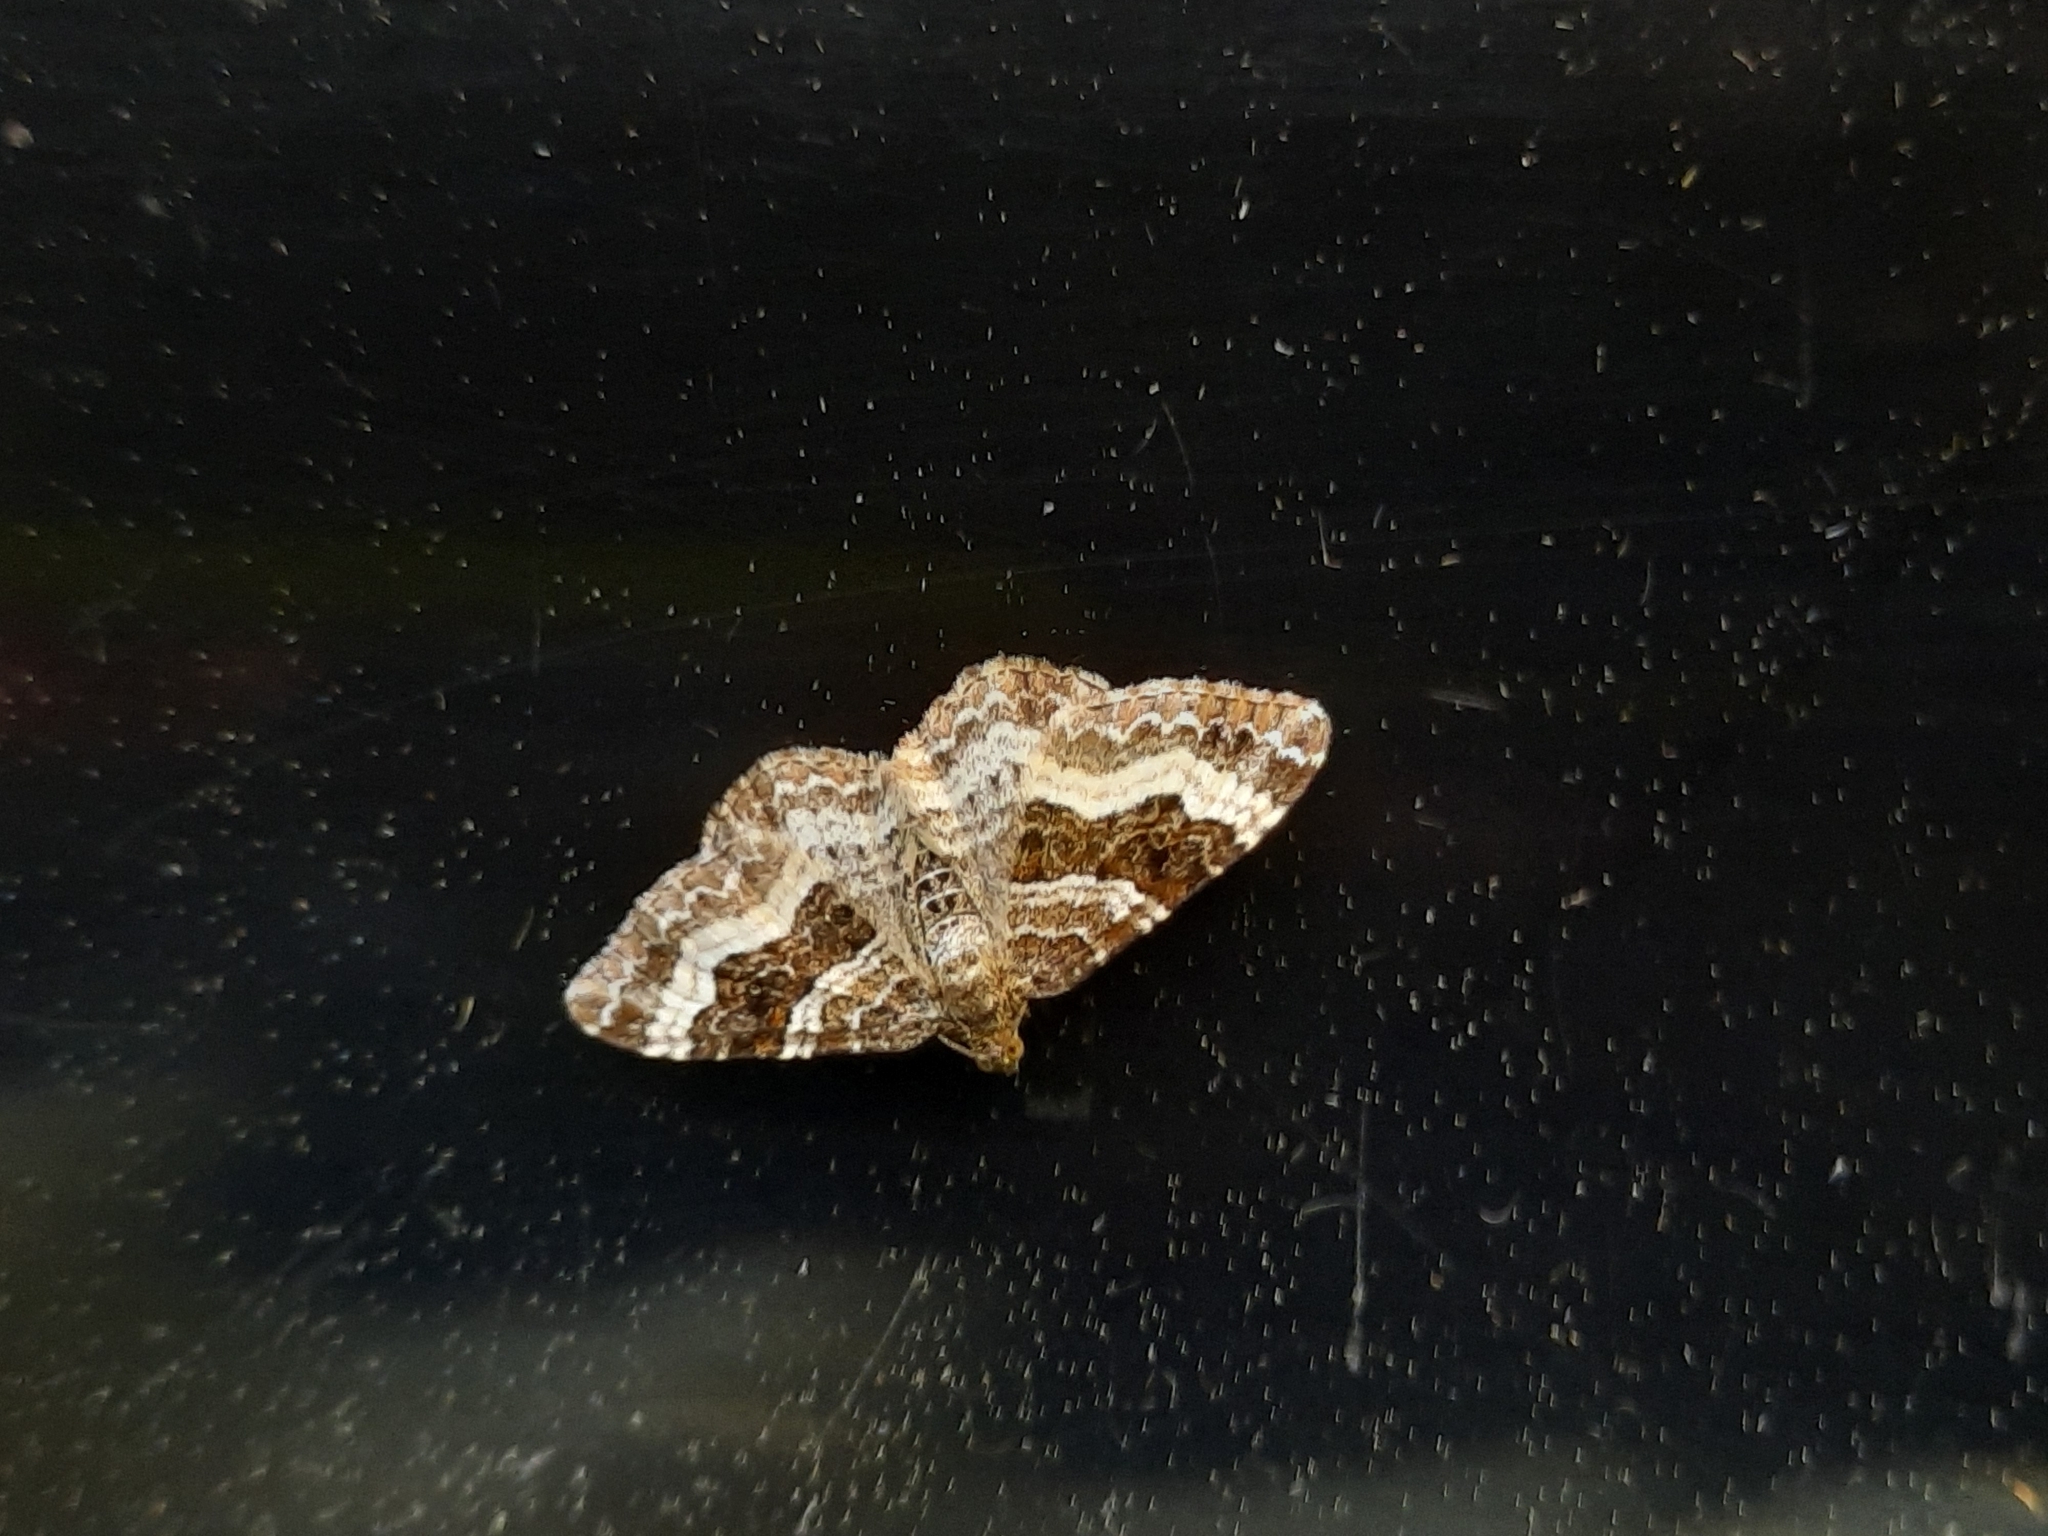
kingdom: Animalia
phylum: Arthropoda
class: Insecta
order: Lepidoptera
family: Geometridae
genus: Epirrhoe
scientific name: Epirrhoe alternata
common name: Common carpet
